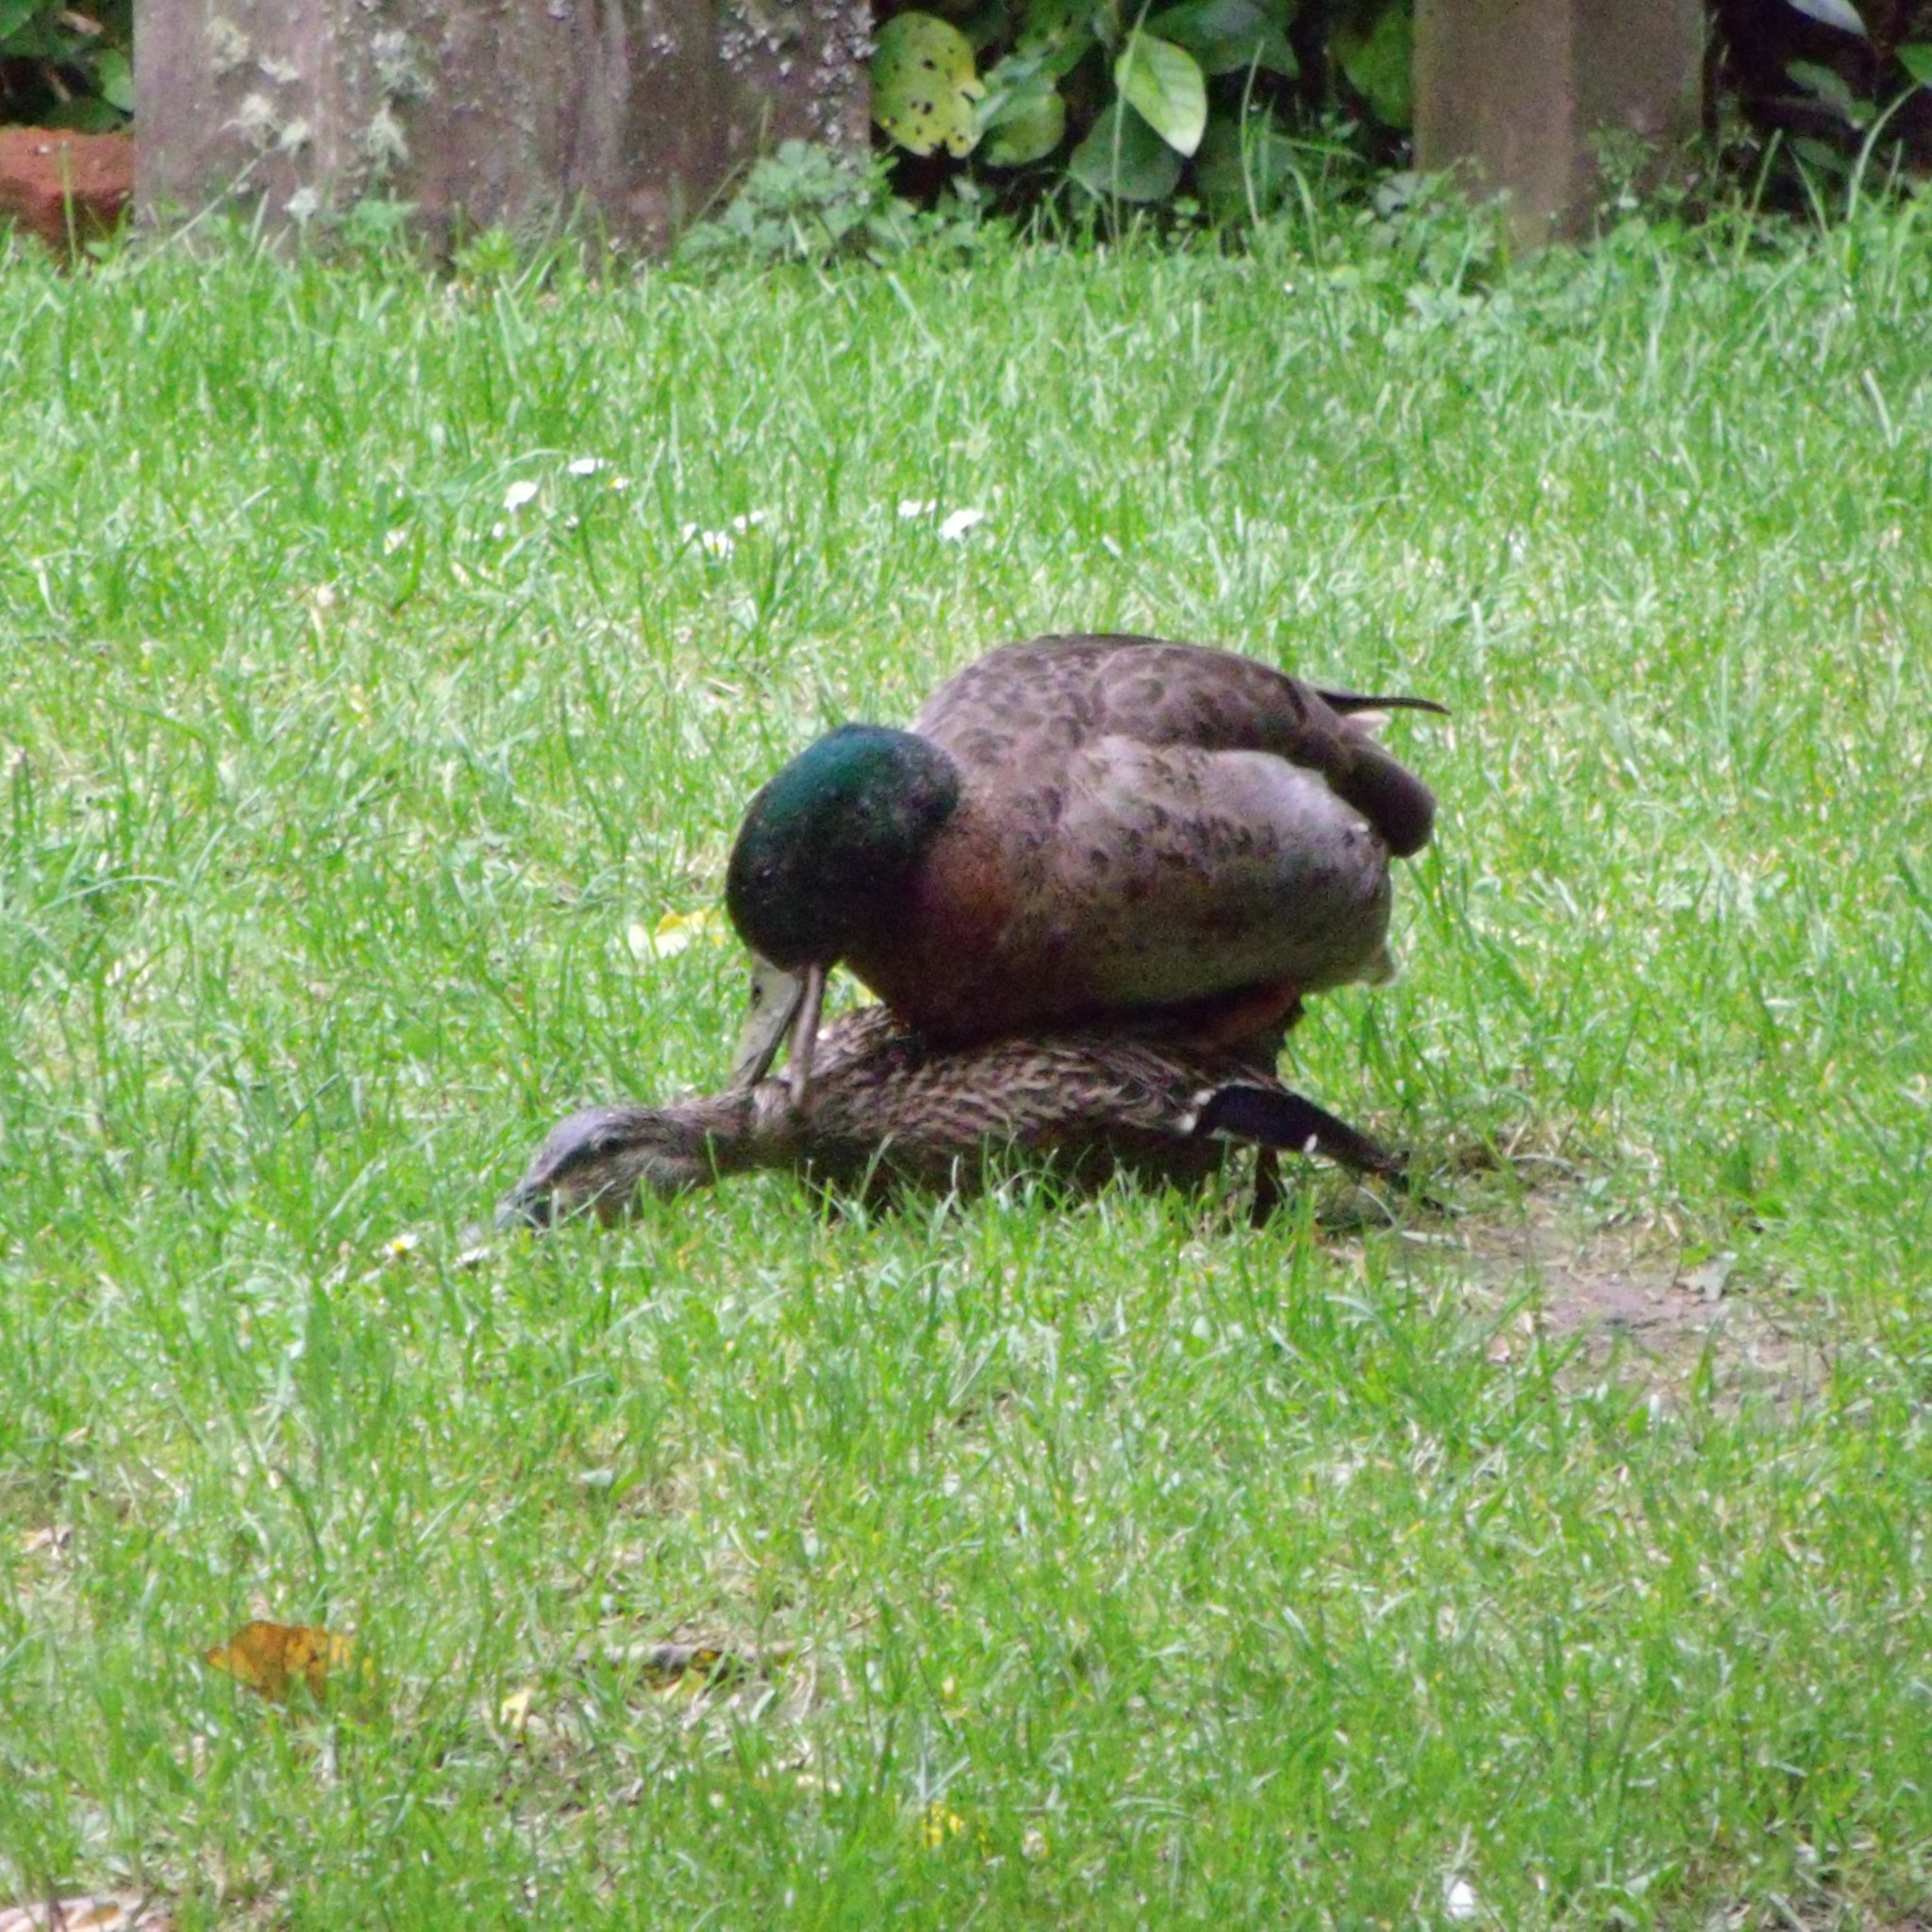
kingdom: Animalia
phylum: Chordata
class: Aves
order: Anseriformes
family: Anatidae
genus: Anas
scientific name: Anas platyrhynchos
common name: Mallard
